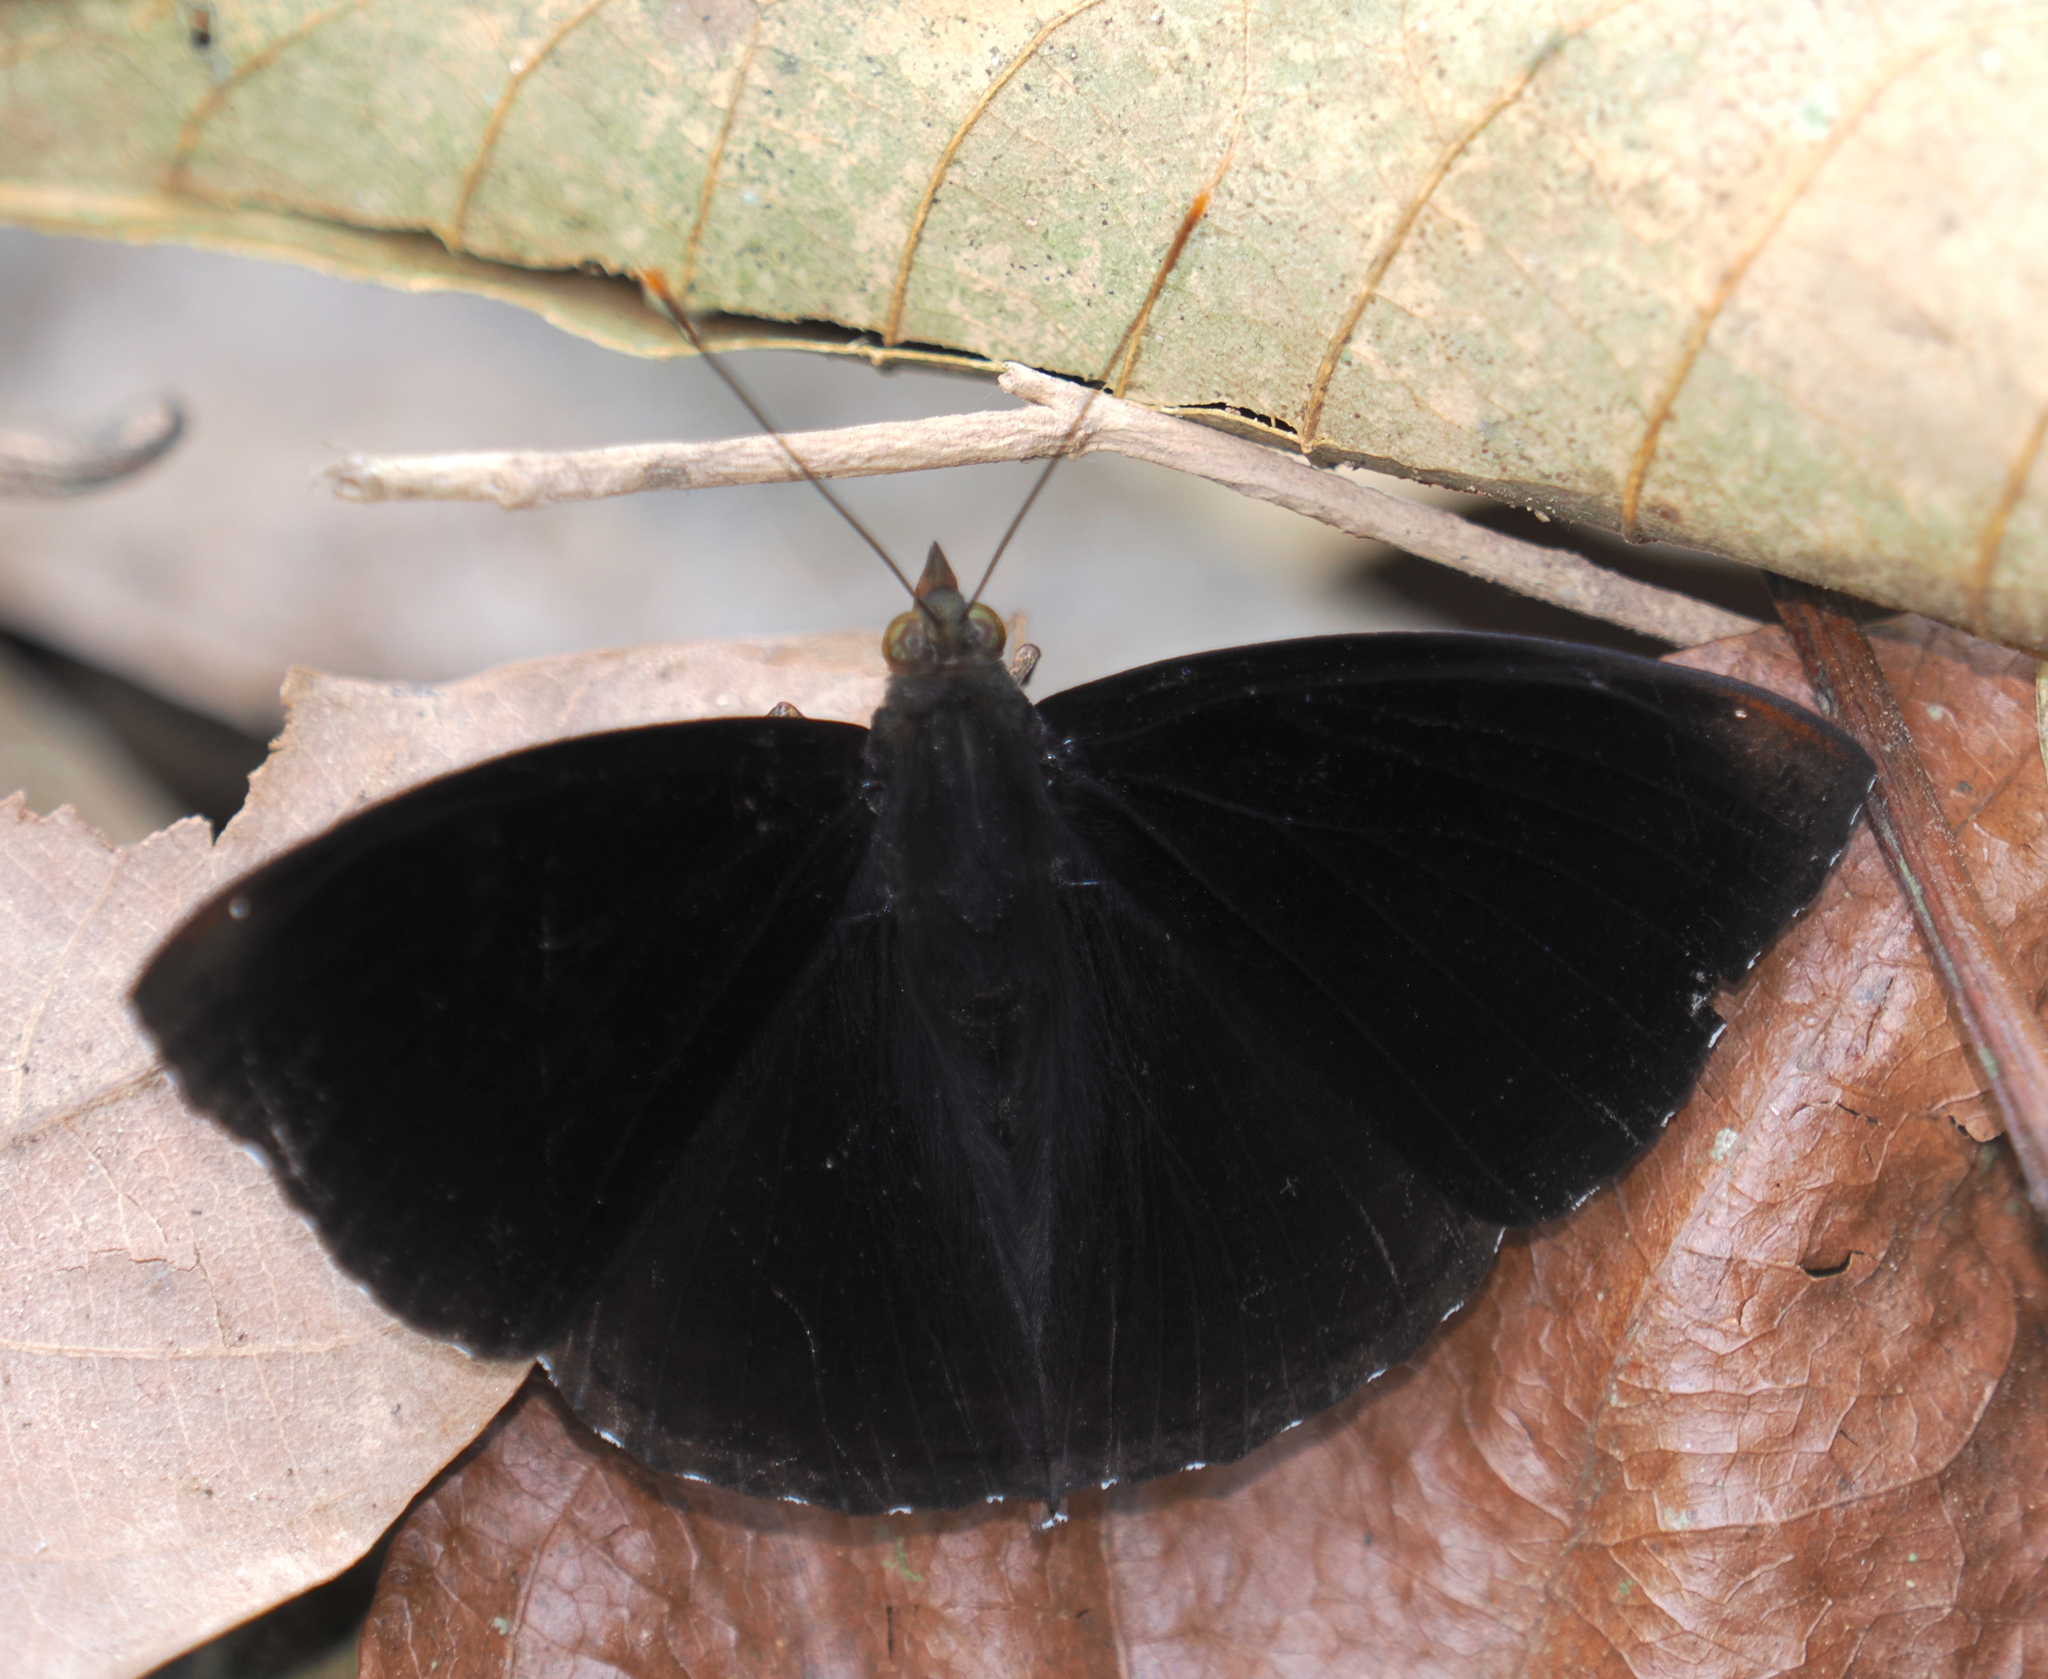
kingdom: Animalia
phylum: Arthropoda
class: Insecta
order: Lepidoptera
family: Nymphalidae
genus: Apatura
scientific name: Apatura Rohana spec
